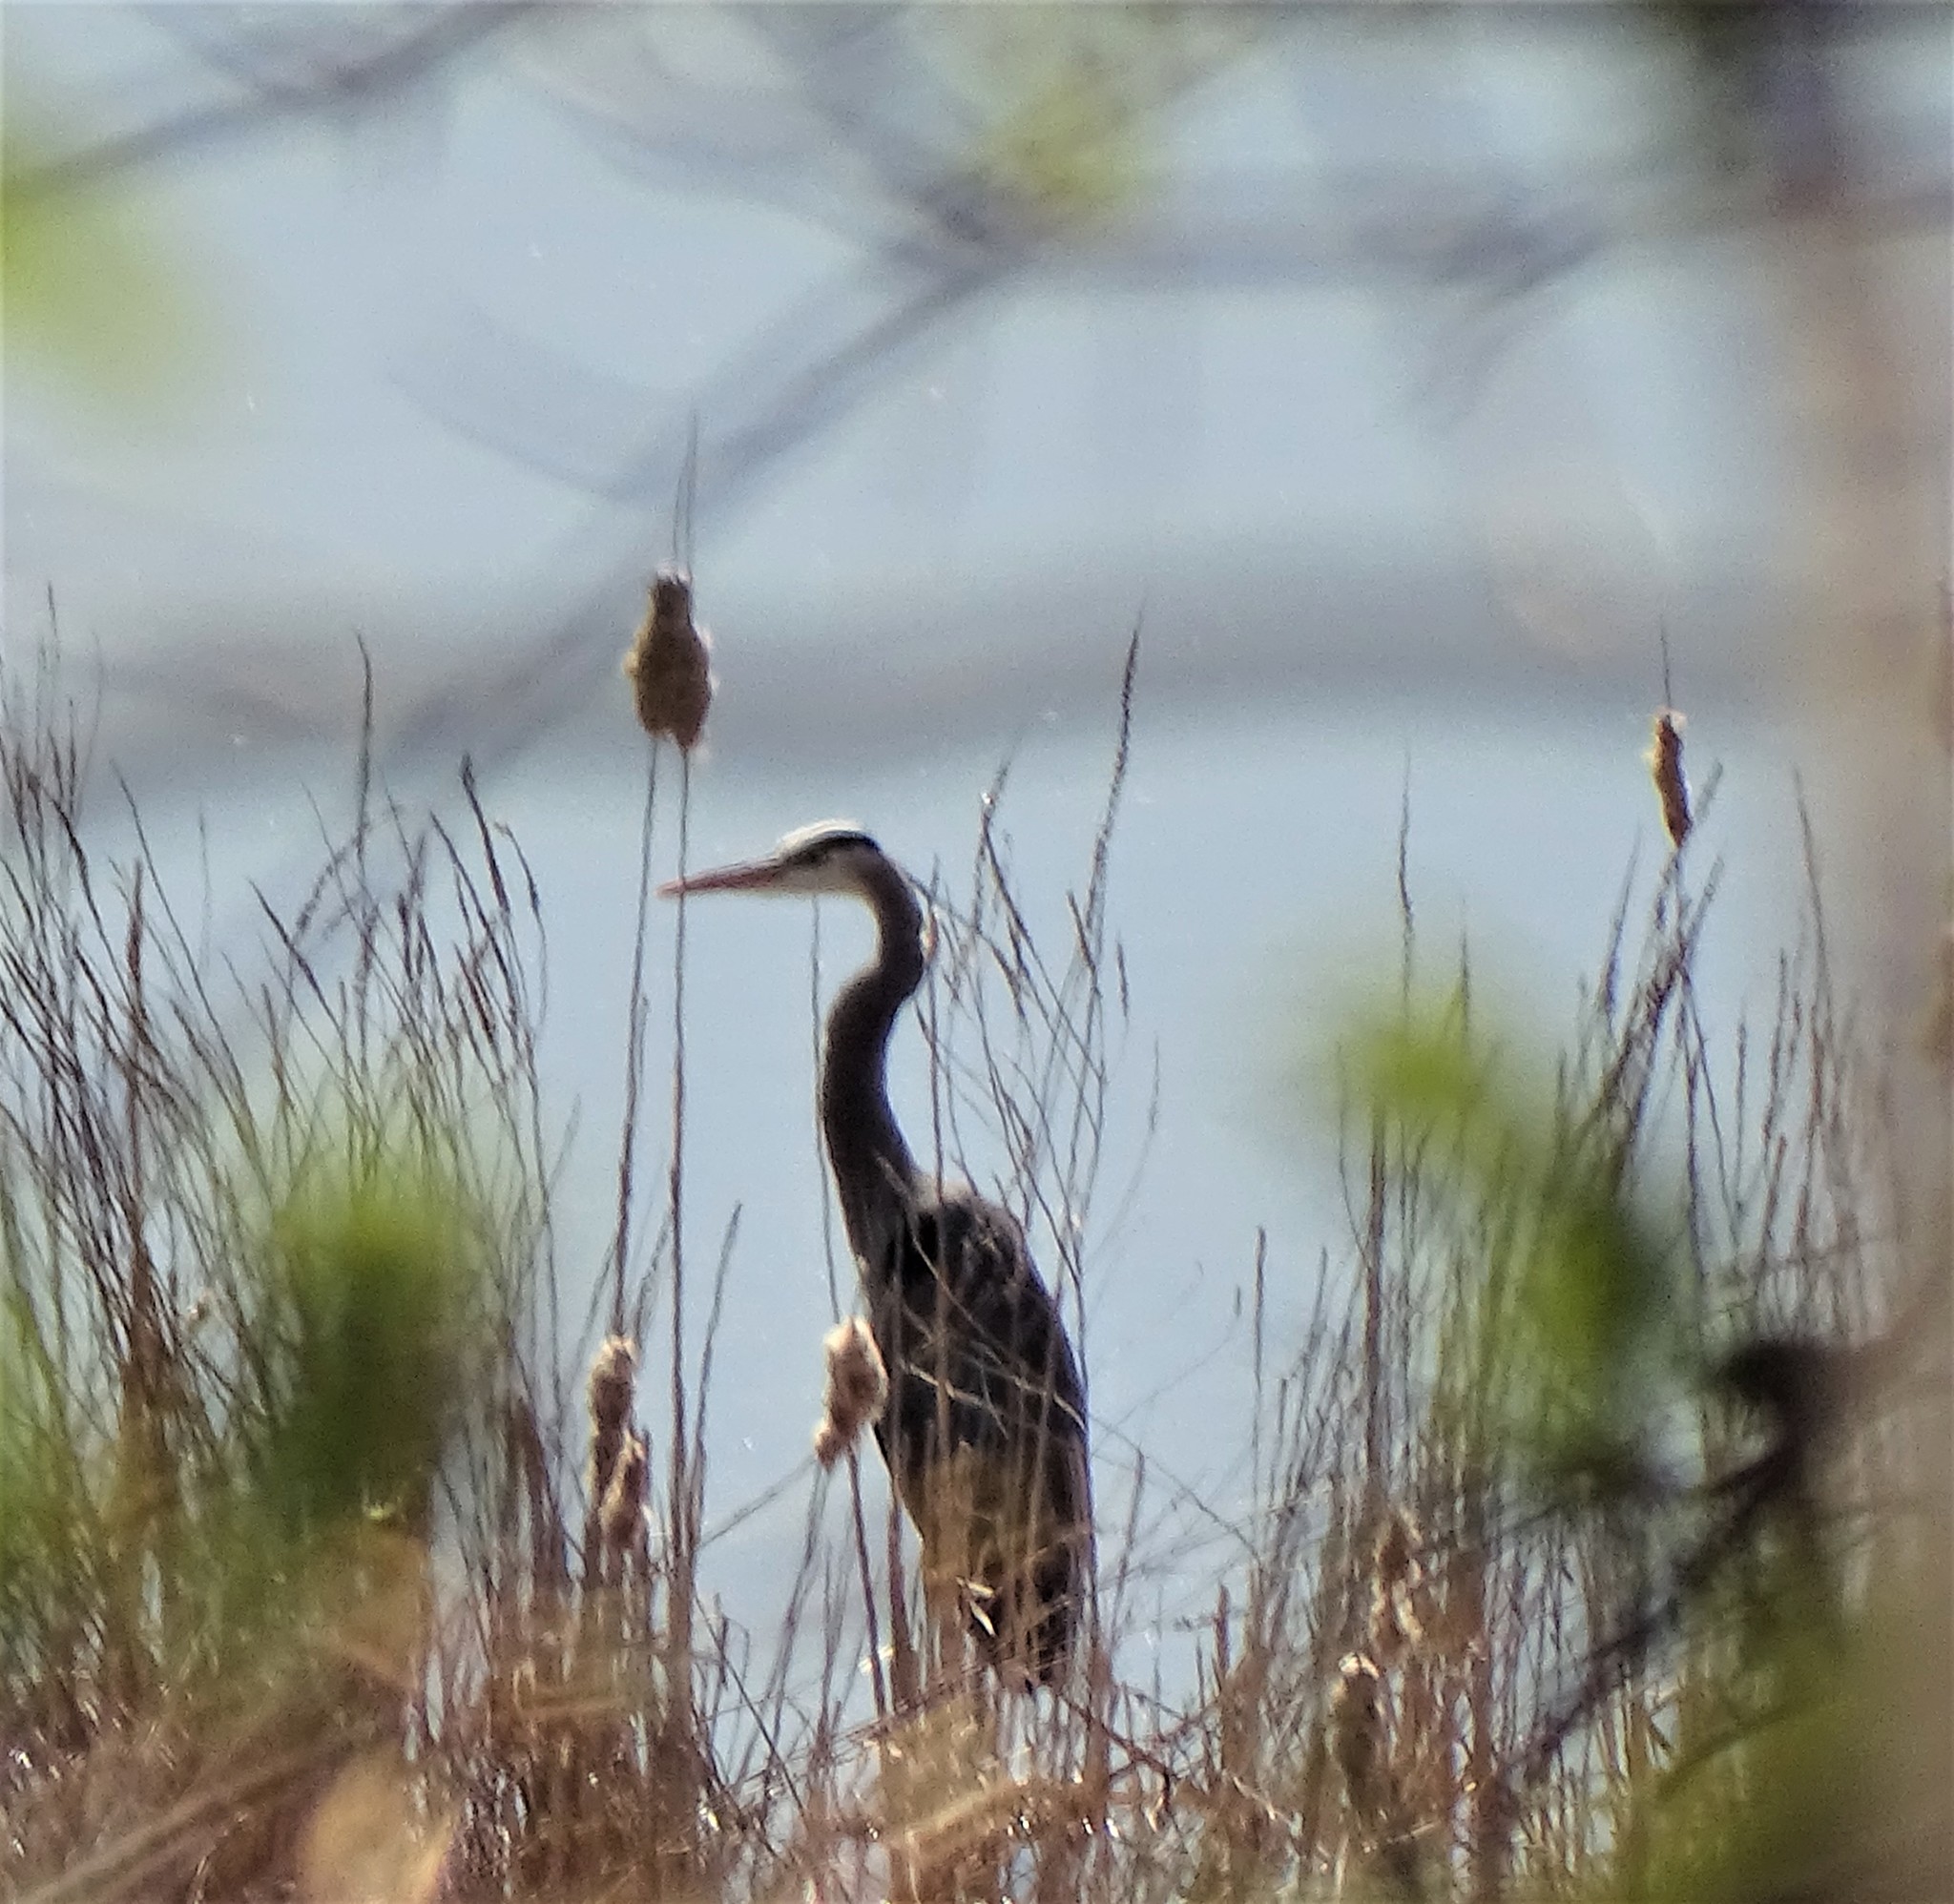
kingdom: Animalia
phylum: Chordata
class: Aves
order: Pelecaniformes
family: Ardeidae
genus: Ardea
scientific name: Ardea herodias
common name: Great blue heron
